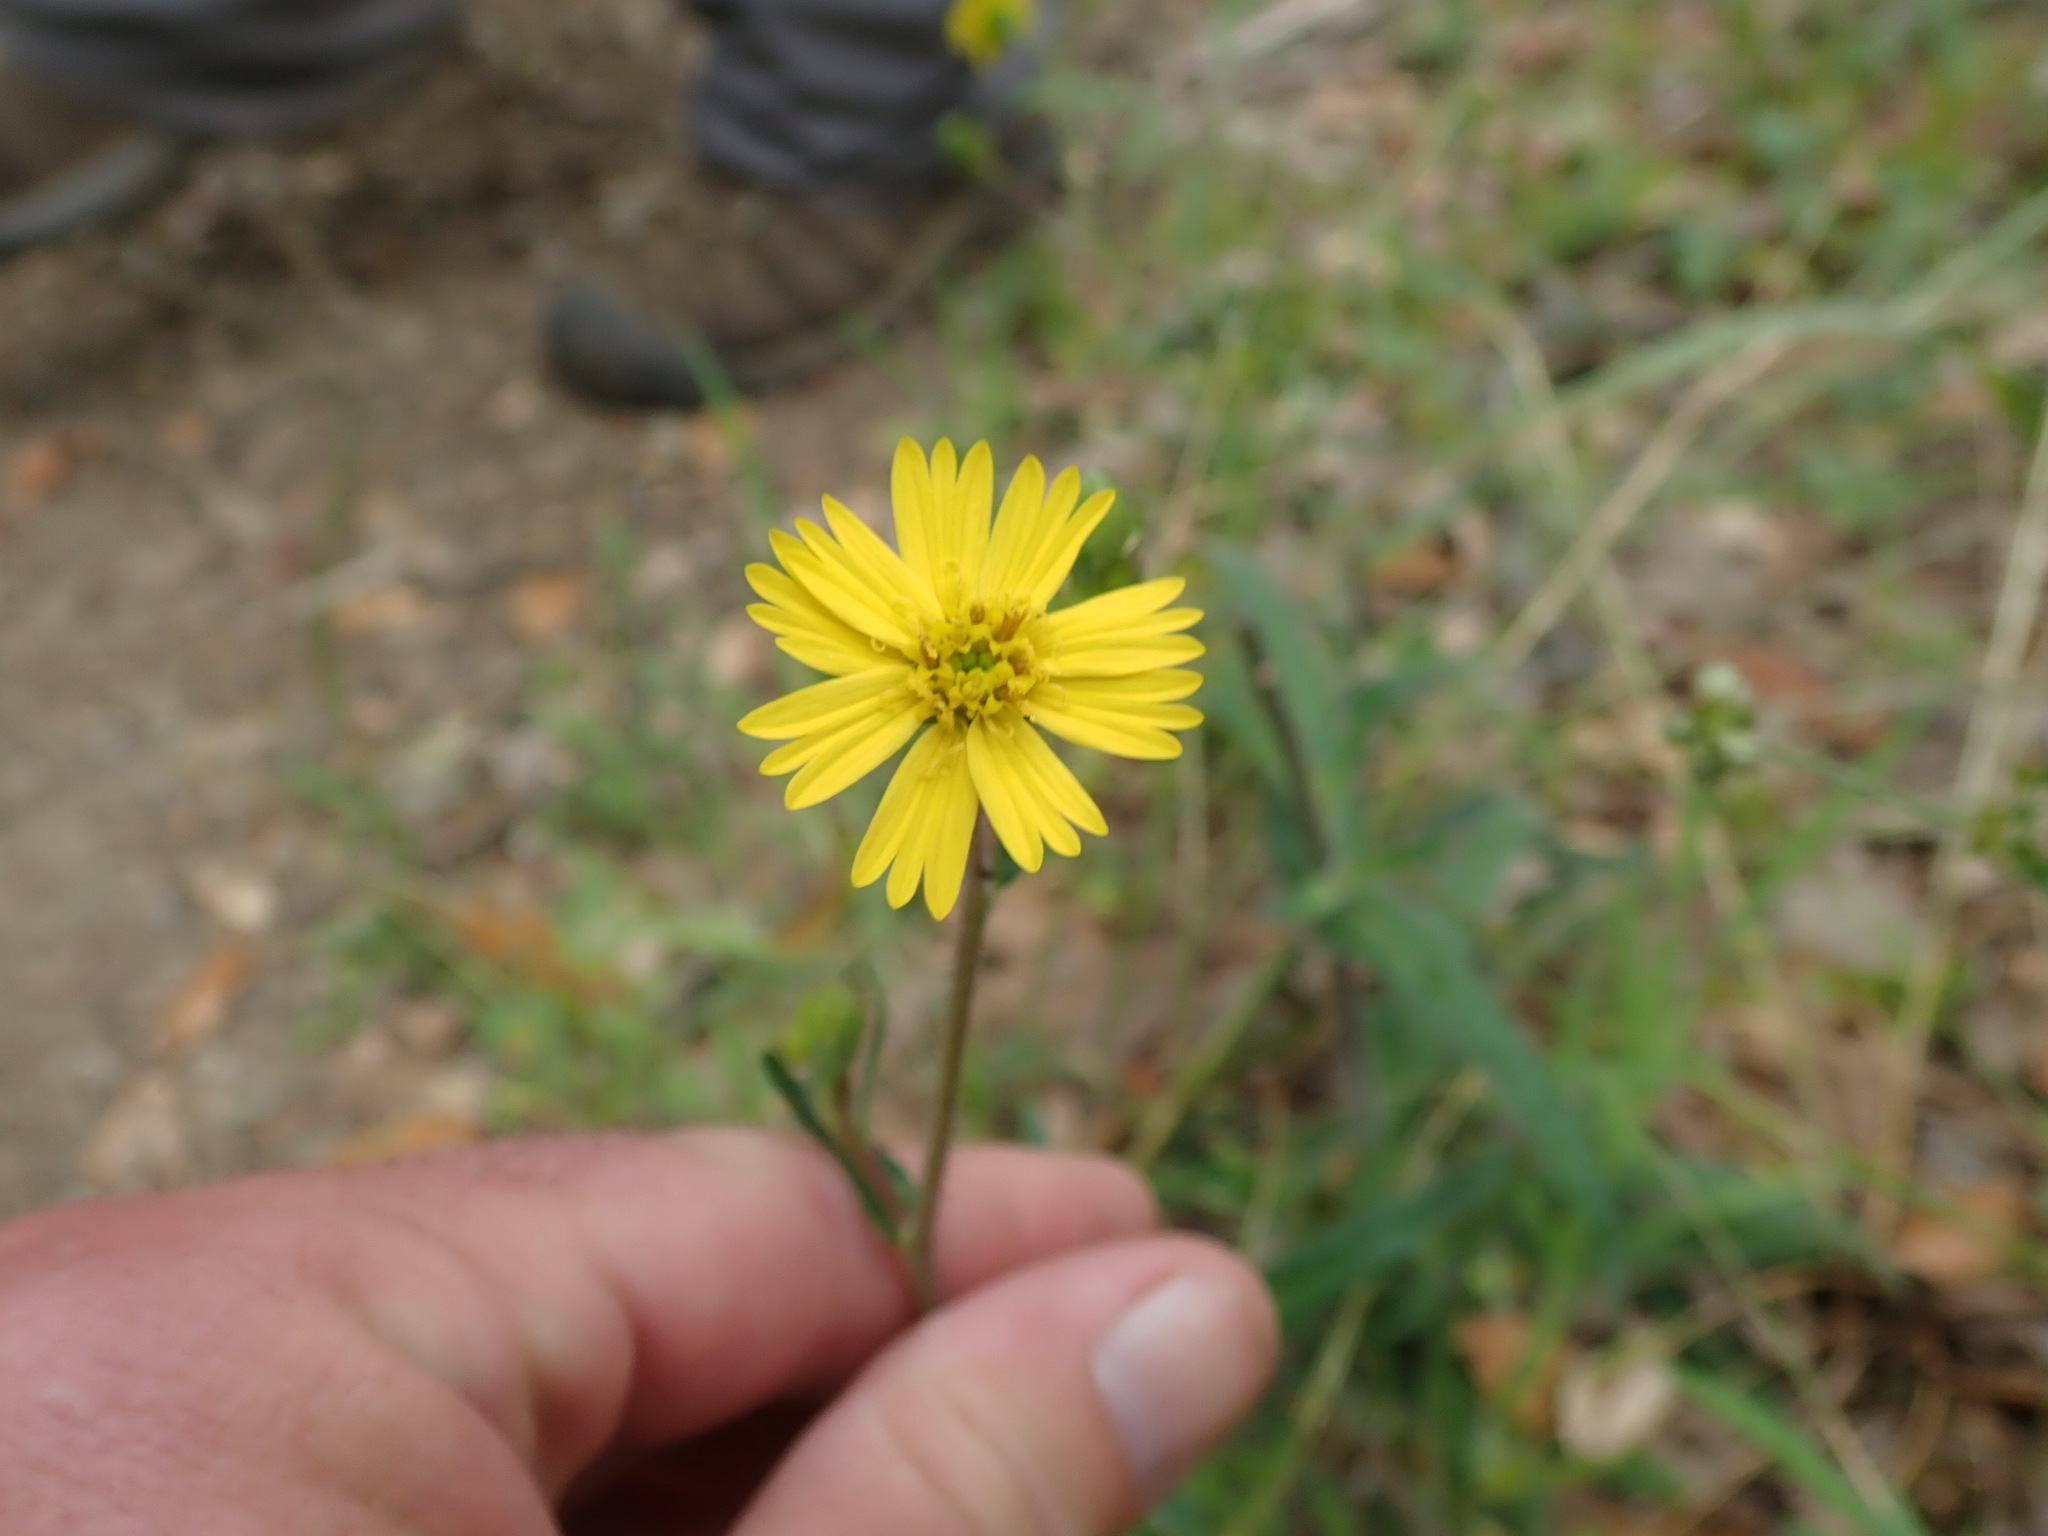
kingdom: Plantae
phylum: Tracheophyta
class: Magnoliopsida
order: Asterales
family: Asteraceae
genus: Anisocarpus
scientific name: Anisocarpus madioides
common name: Woodland madia
